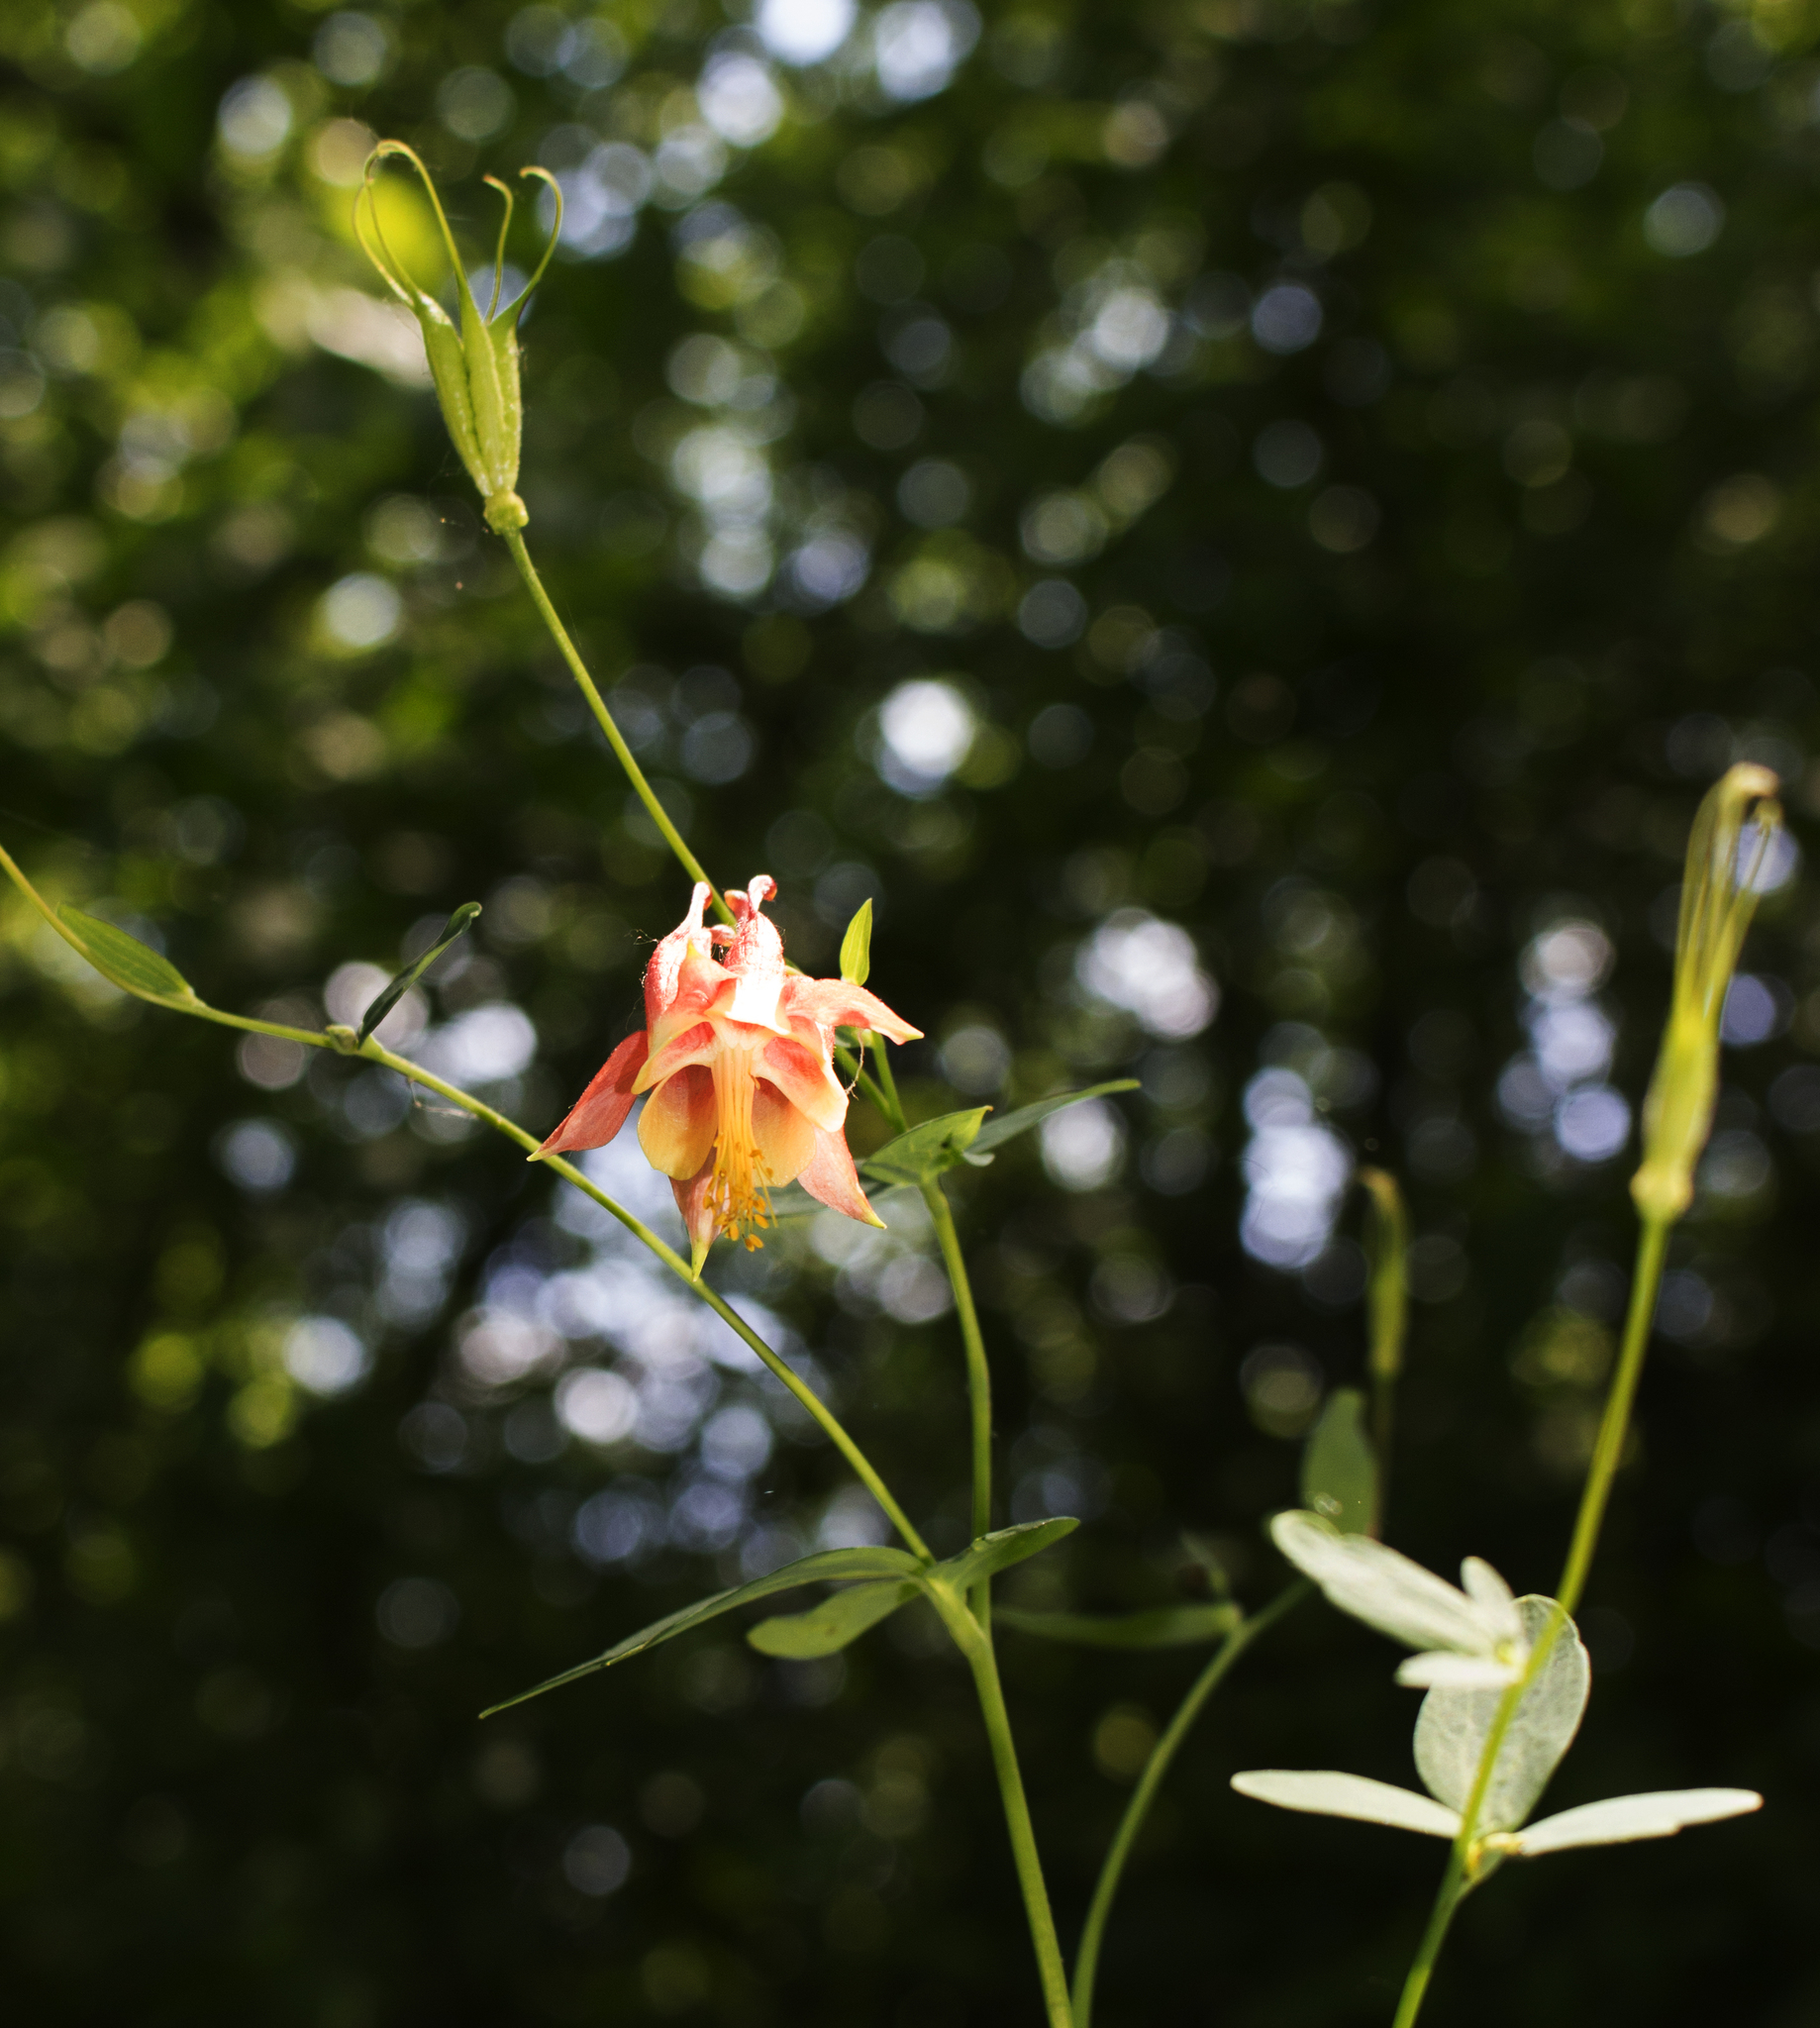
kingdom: Plantae
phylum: Tracheophyta
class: Magnoliopsida
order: Ranunculales
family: Ranunculaceae
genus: Aquilegia
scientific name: Aquilegia canadensis
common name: American columbine
